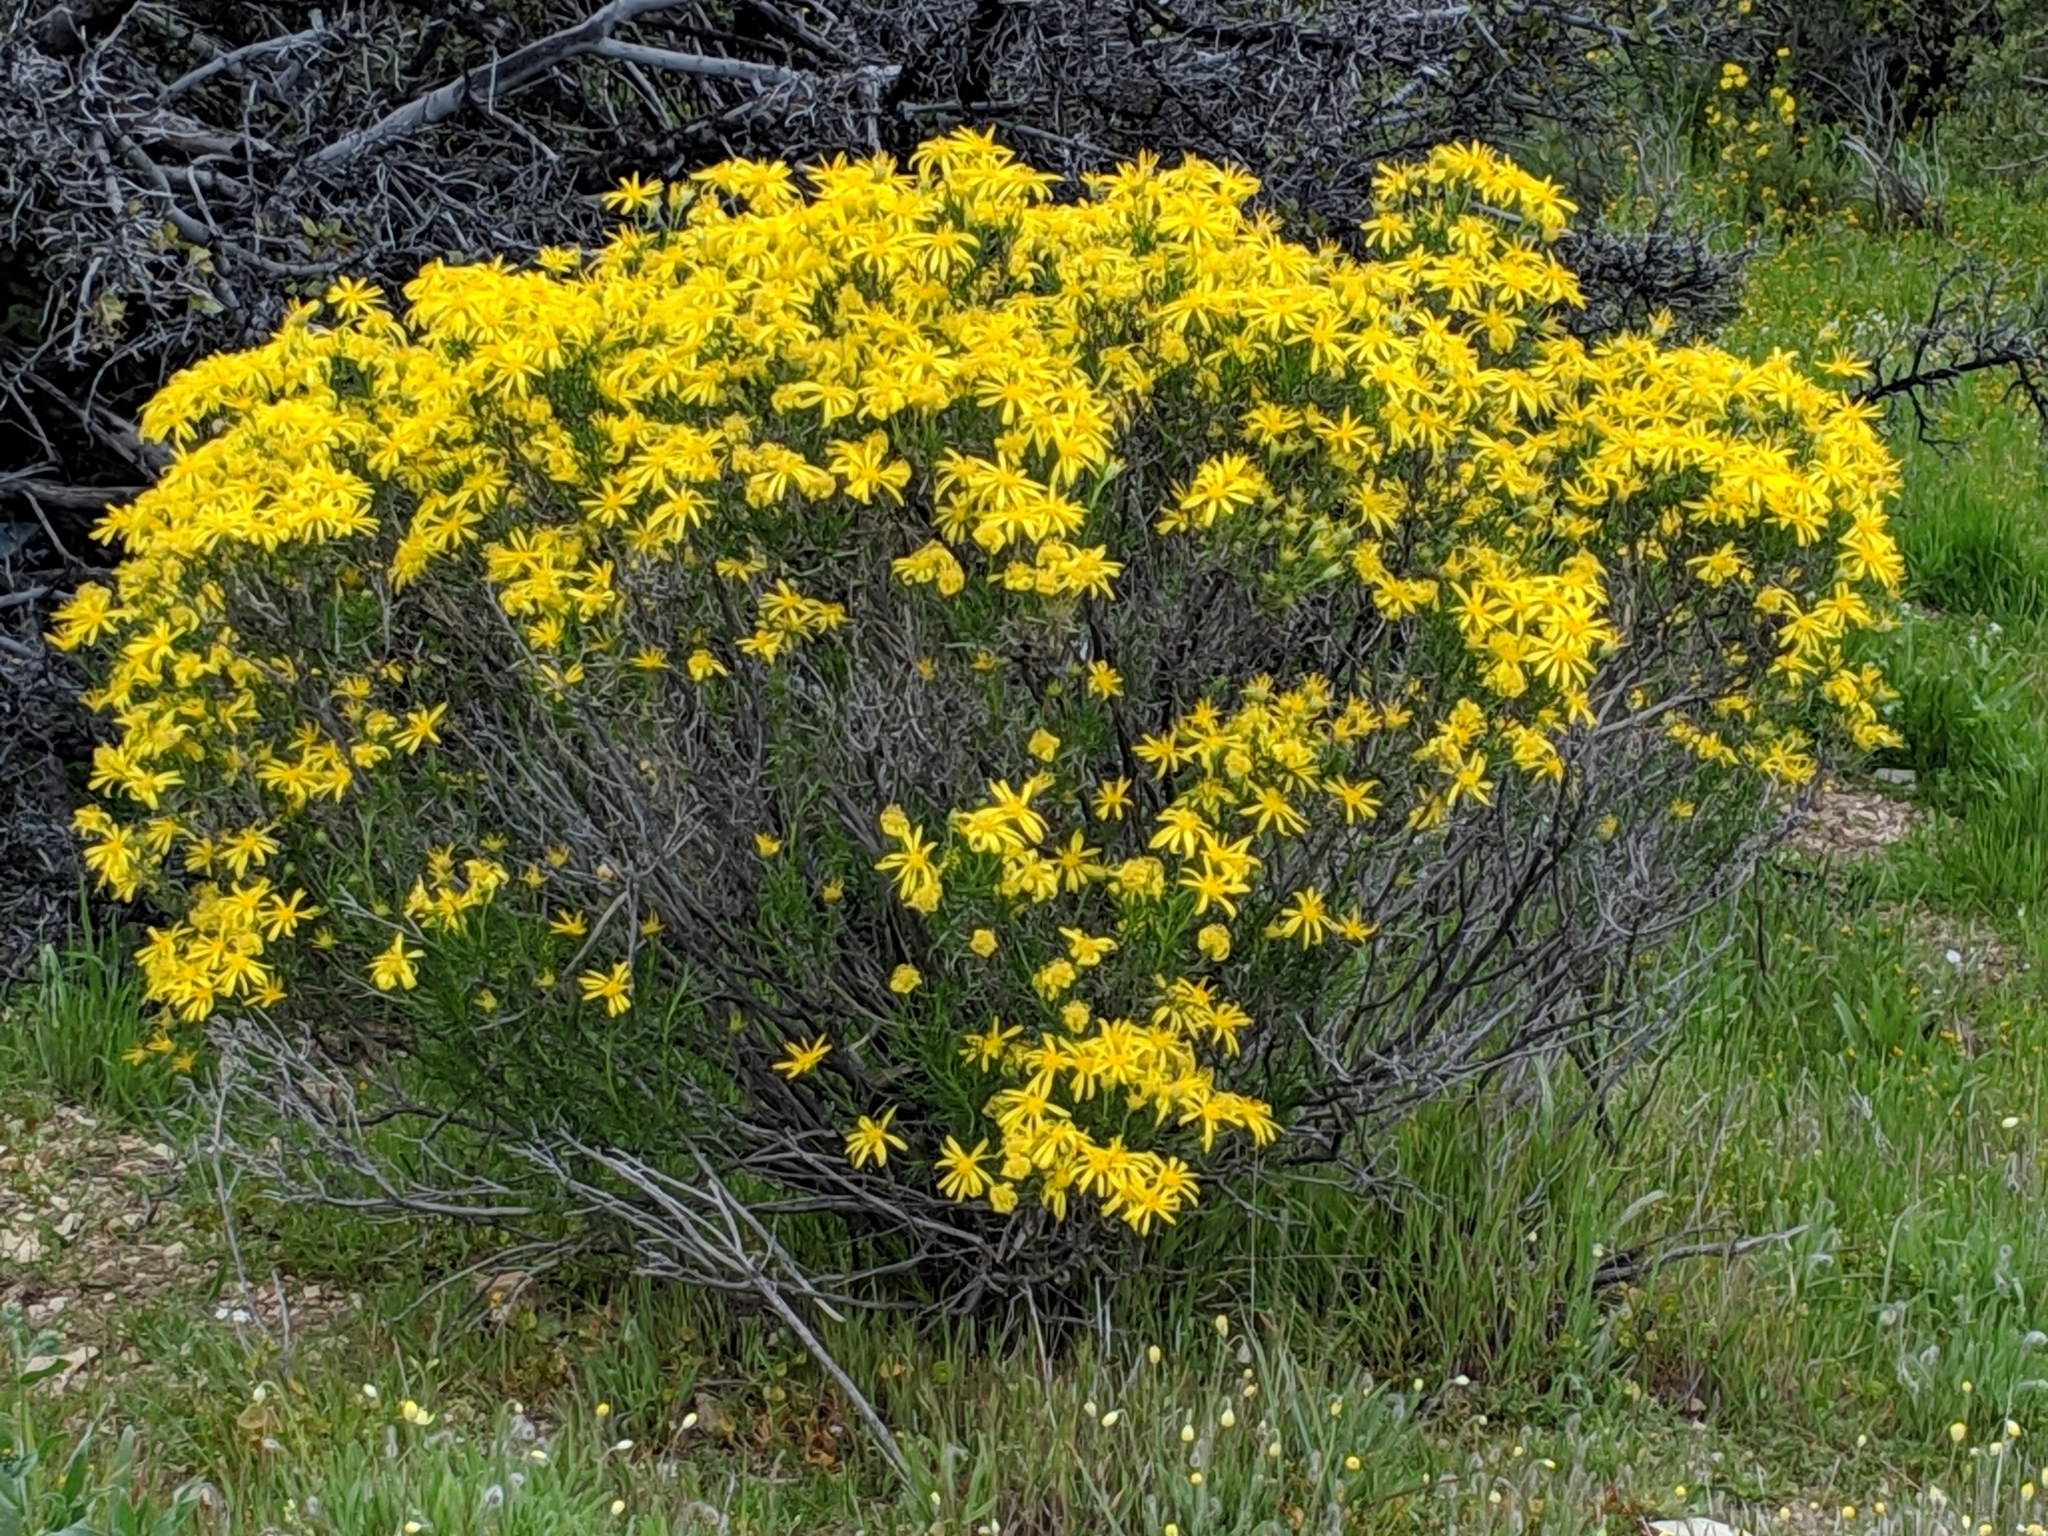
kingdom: Plantae
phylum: Tracheophyta
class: Magnoliopsida
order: Asterales
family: Asteraceae
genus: Ericameria
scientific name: Ericameria linearifolia
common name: Interior goldenbush
